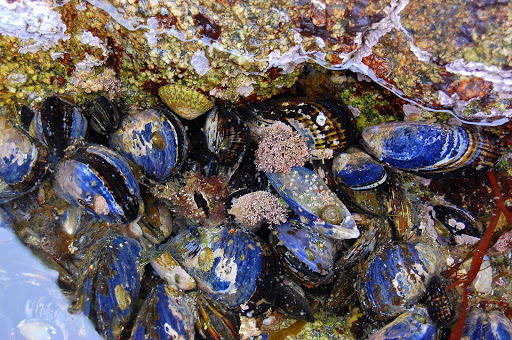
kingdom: Animalia
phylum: Mollusca
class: Bivalvia
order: Mytilida
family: Mytilidae
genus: Mytilus
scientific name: Mytilus californianus
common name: California mussel
